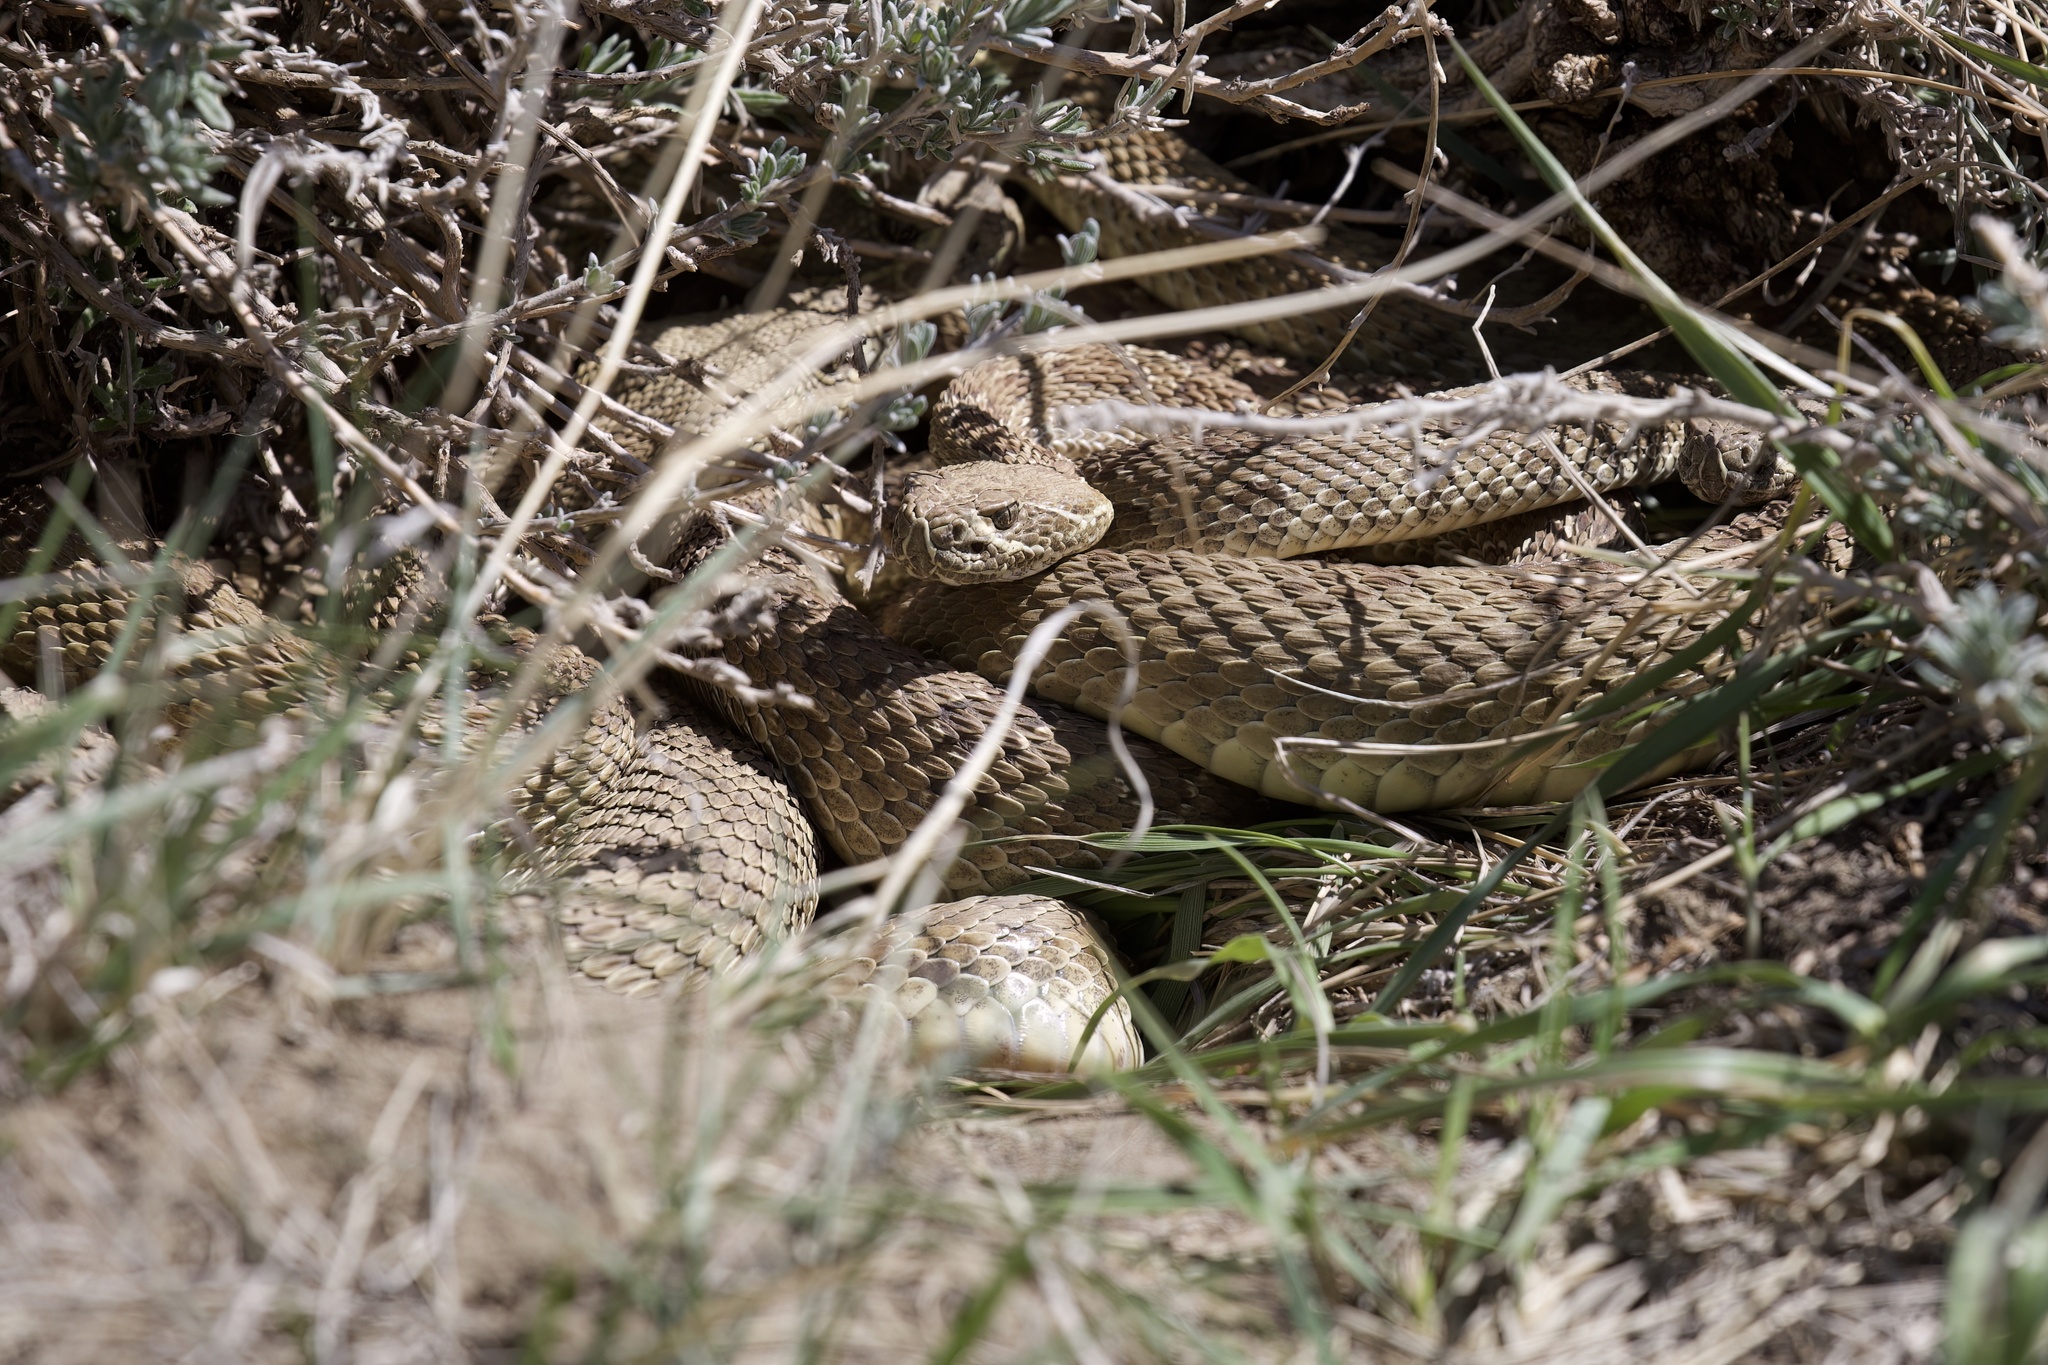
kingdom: Animalia
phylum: Chordata
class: Squamata
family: Viperidae
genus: Crotalus
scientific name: Crotalus viridis
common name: Prairie rattlesnake
